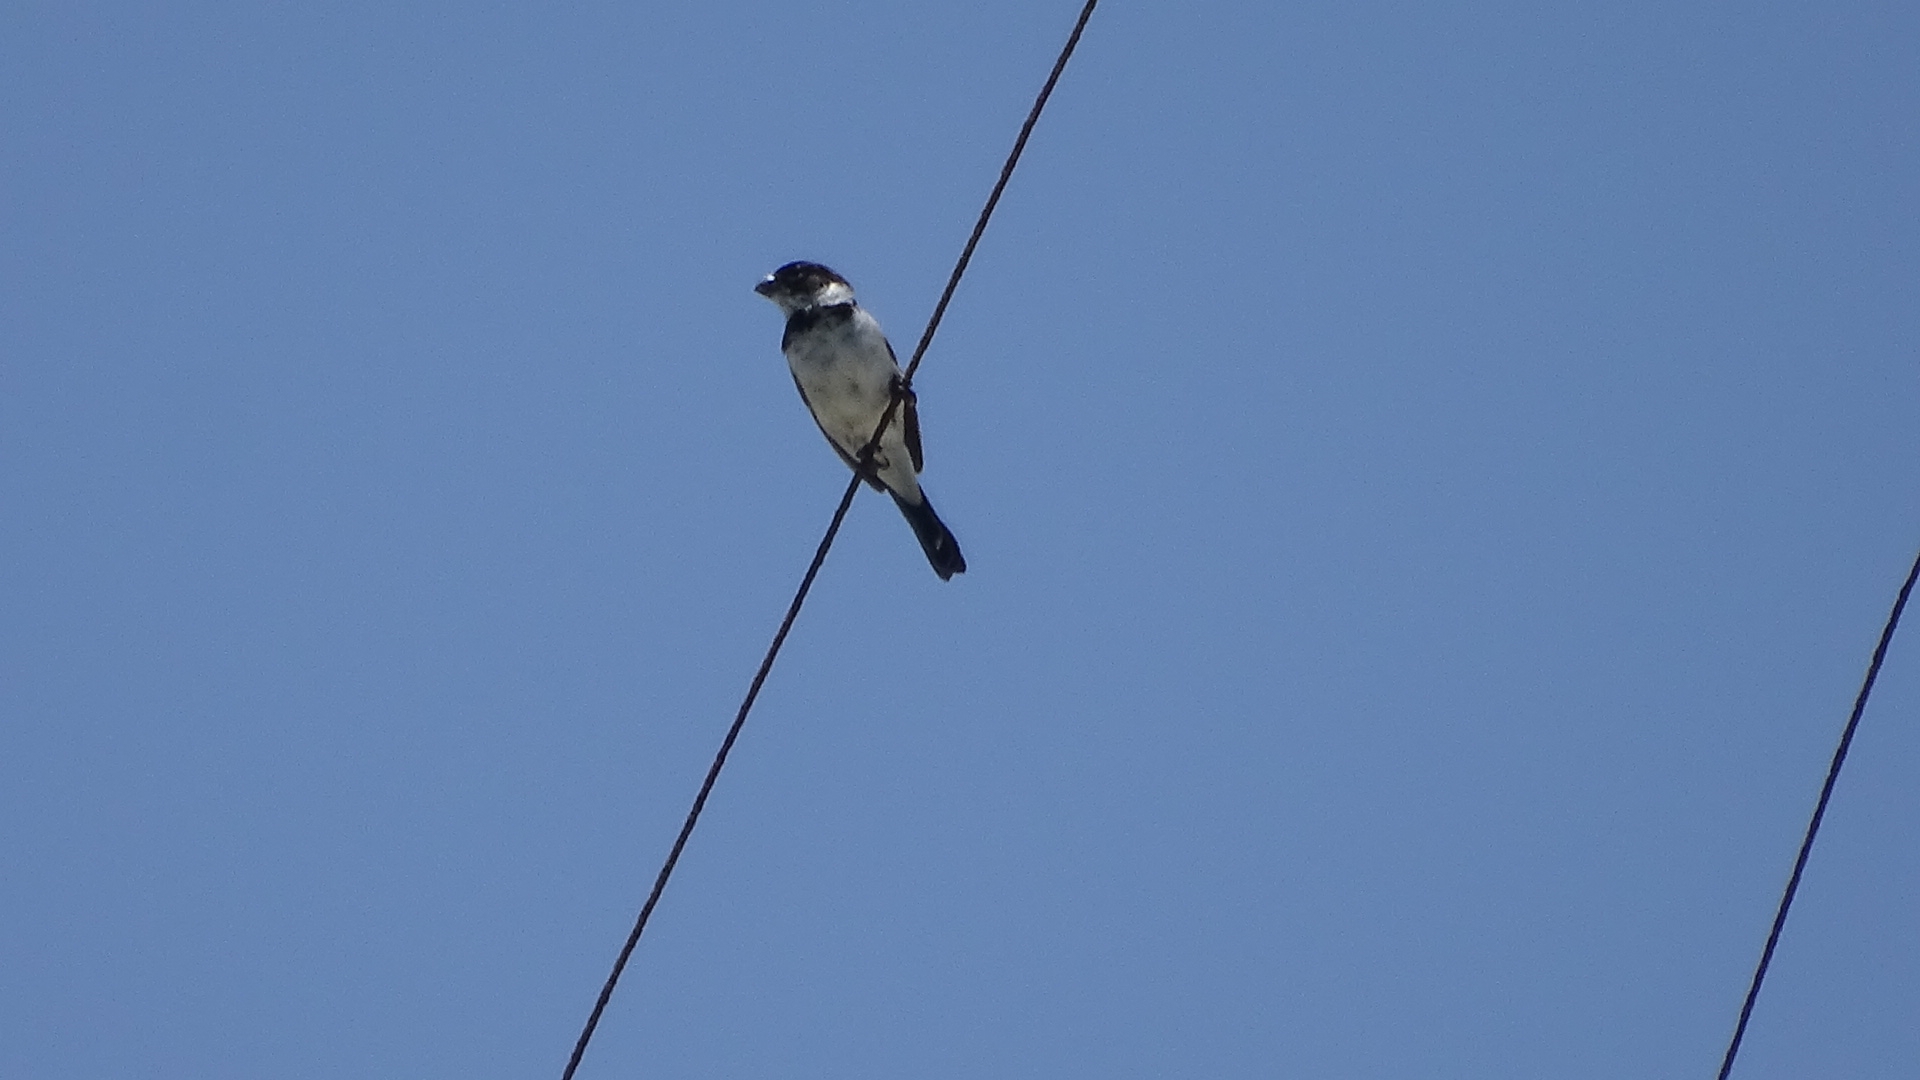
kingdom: Animalia
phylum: Chordata
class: Aves
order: Passeriformes
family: Thraupidae
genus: Sporophila
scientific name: Sporophila morelleti
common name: Morelet's seedeater
